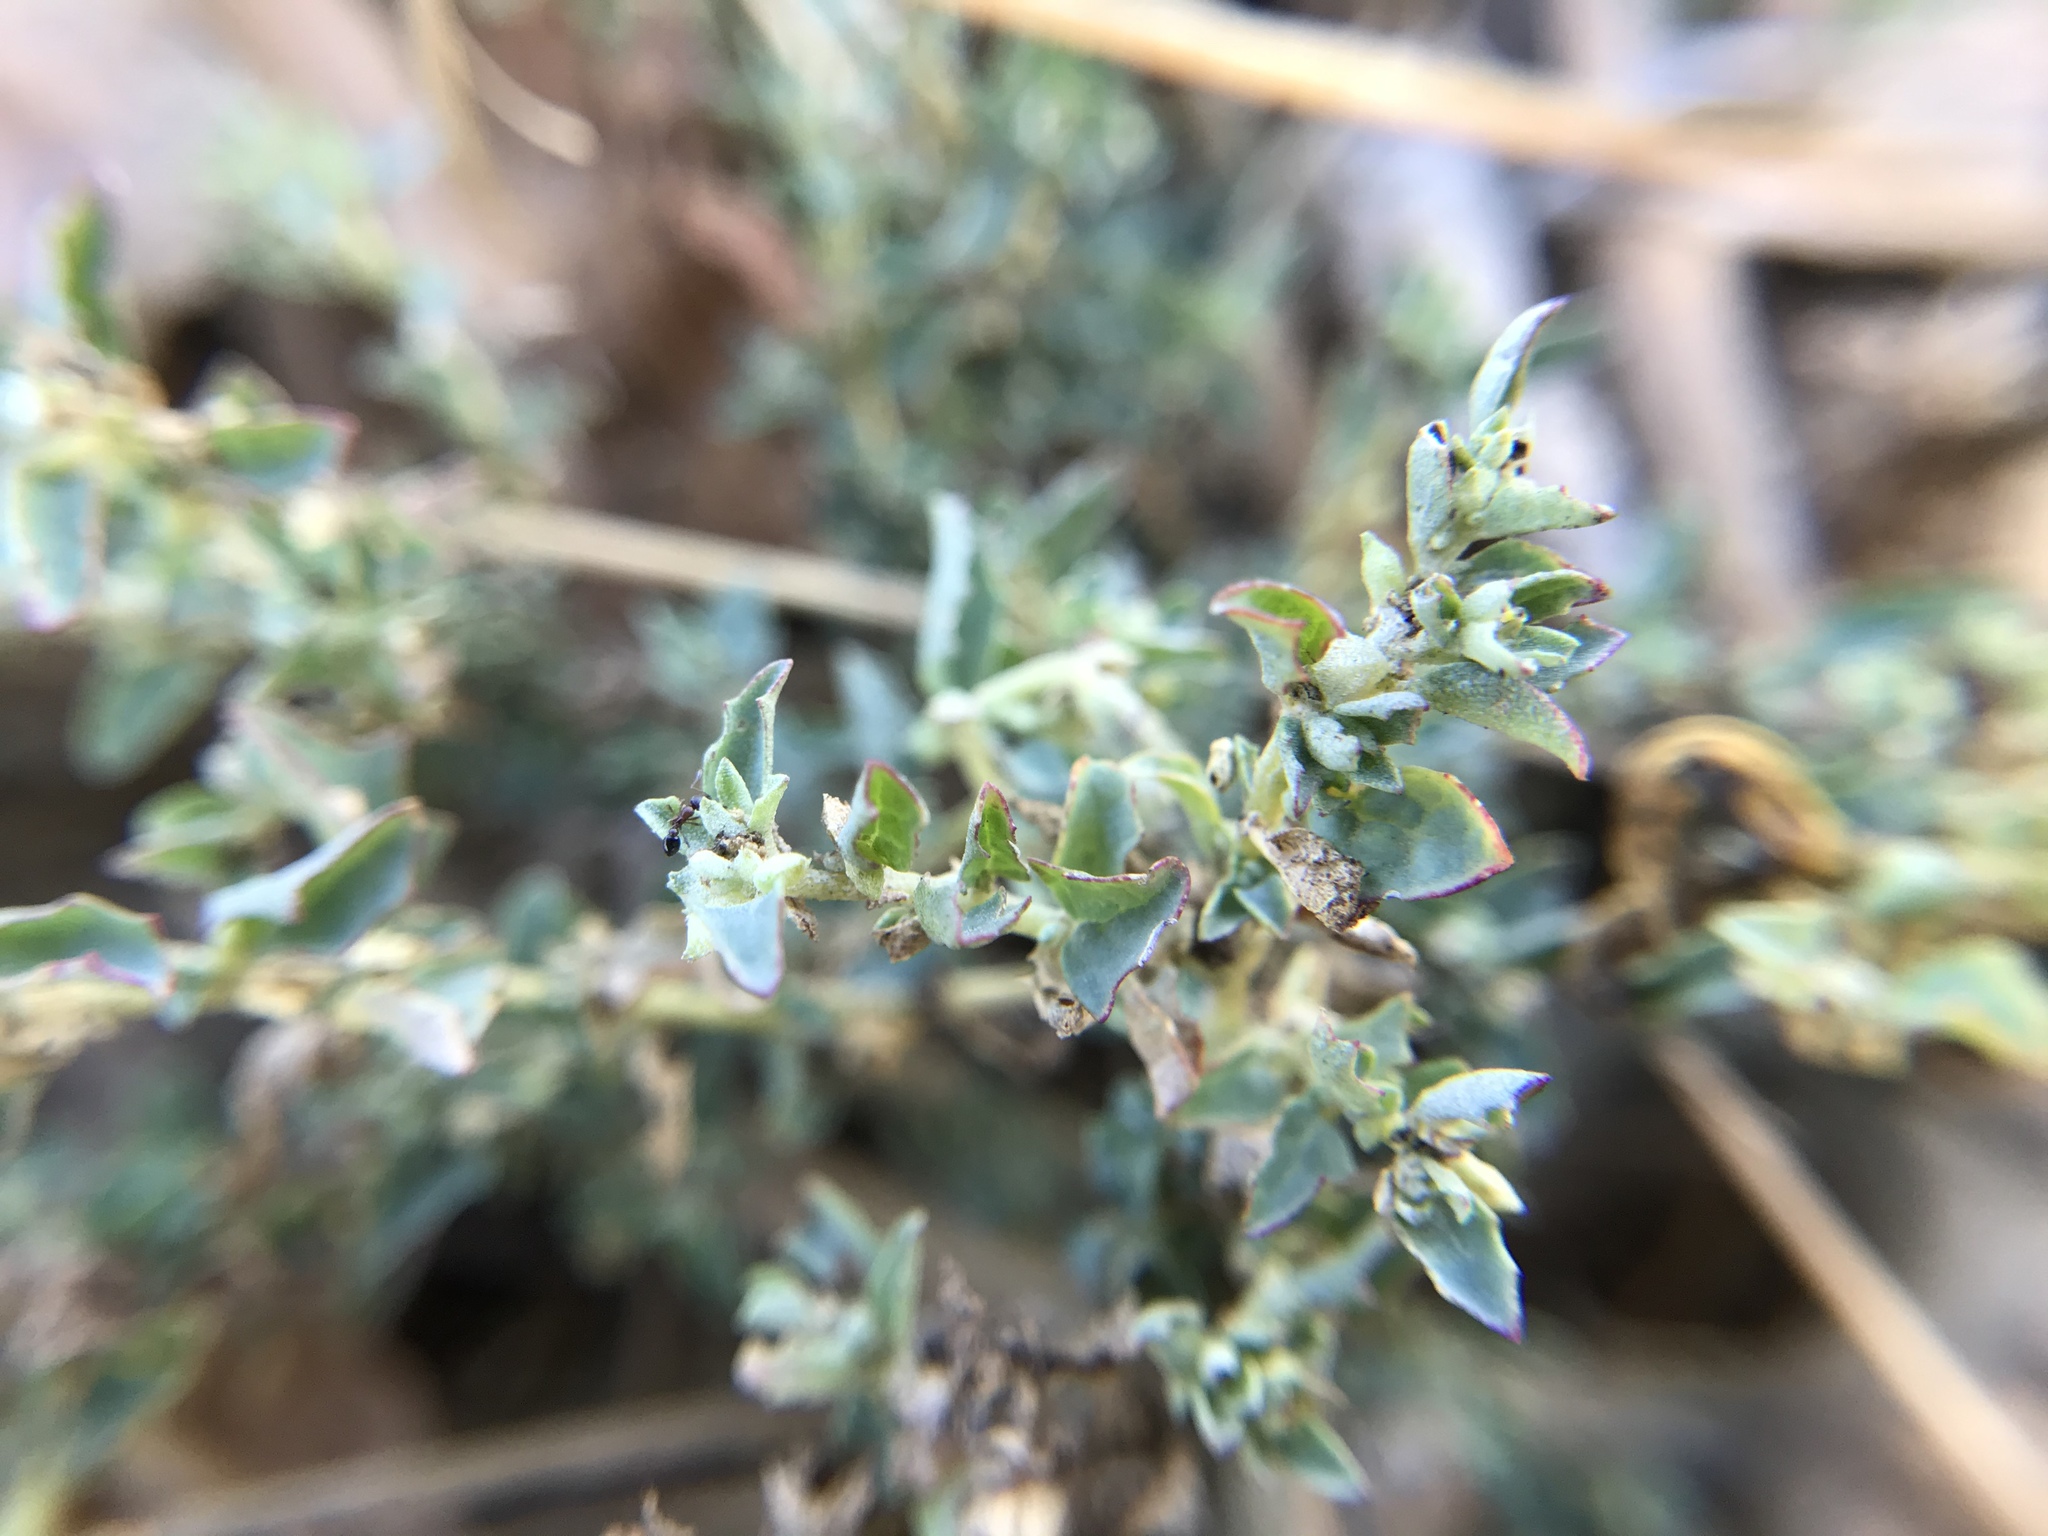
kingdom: Plantae
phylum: Tracheophyta
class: Magnoliopsida
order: Caryophyllales
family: Polygonaceae
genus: Polygonum
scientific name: Polygonum aviculare
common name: Prostrate knotweed
